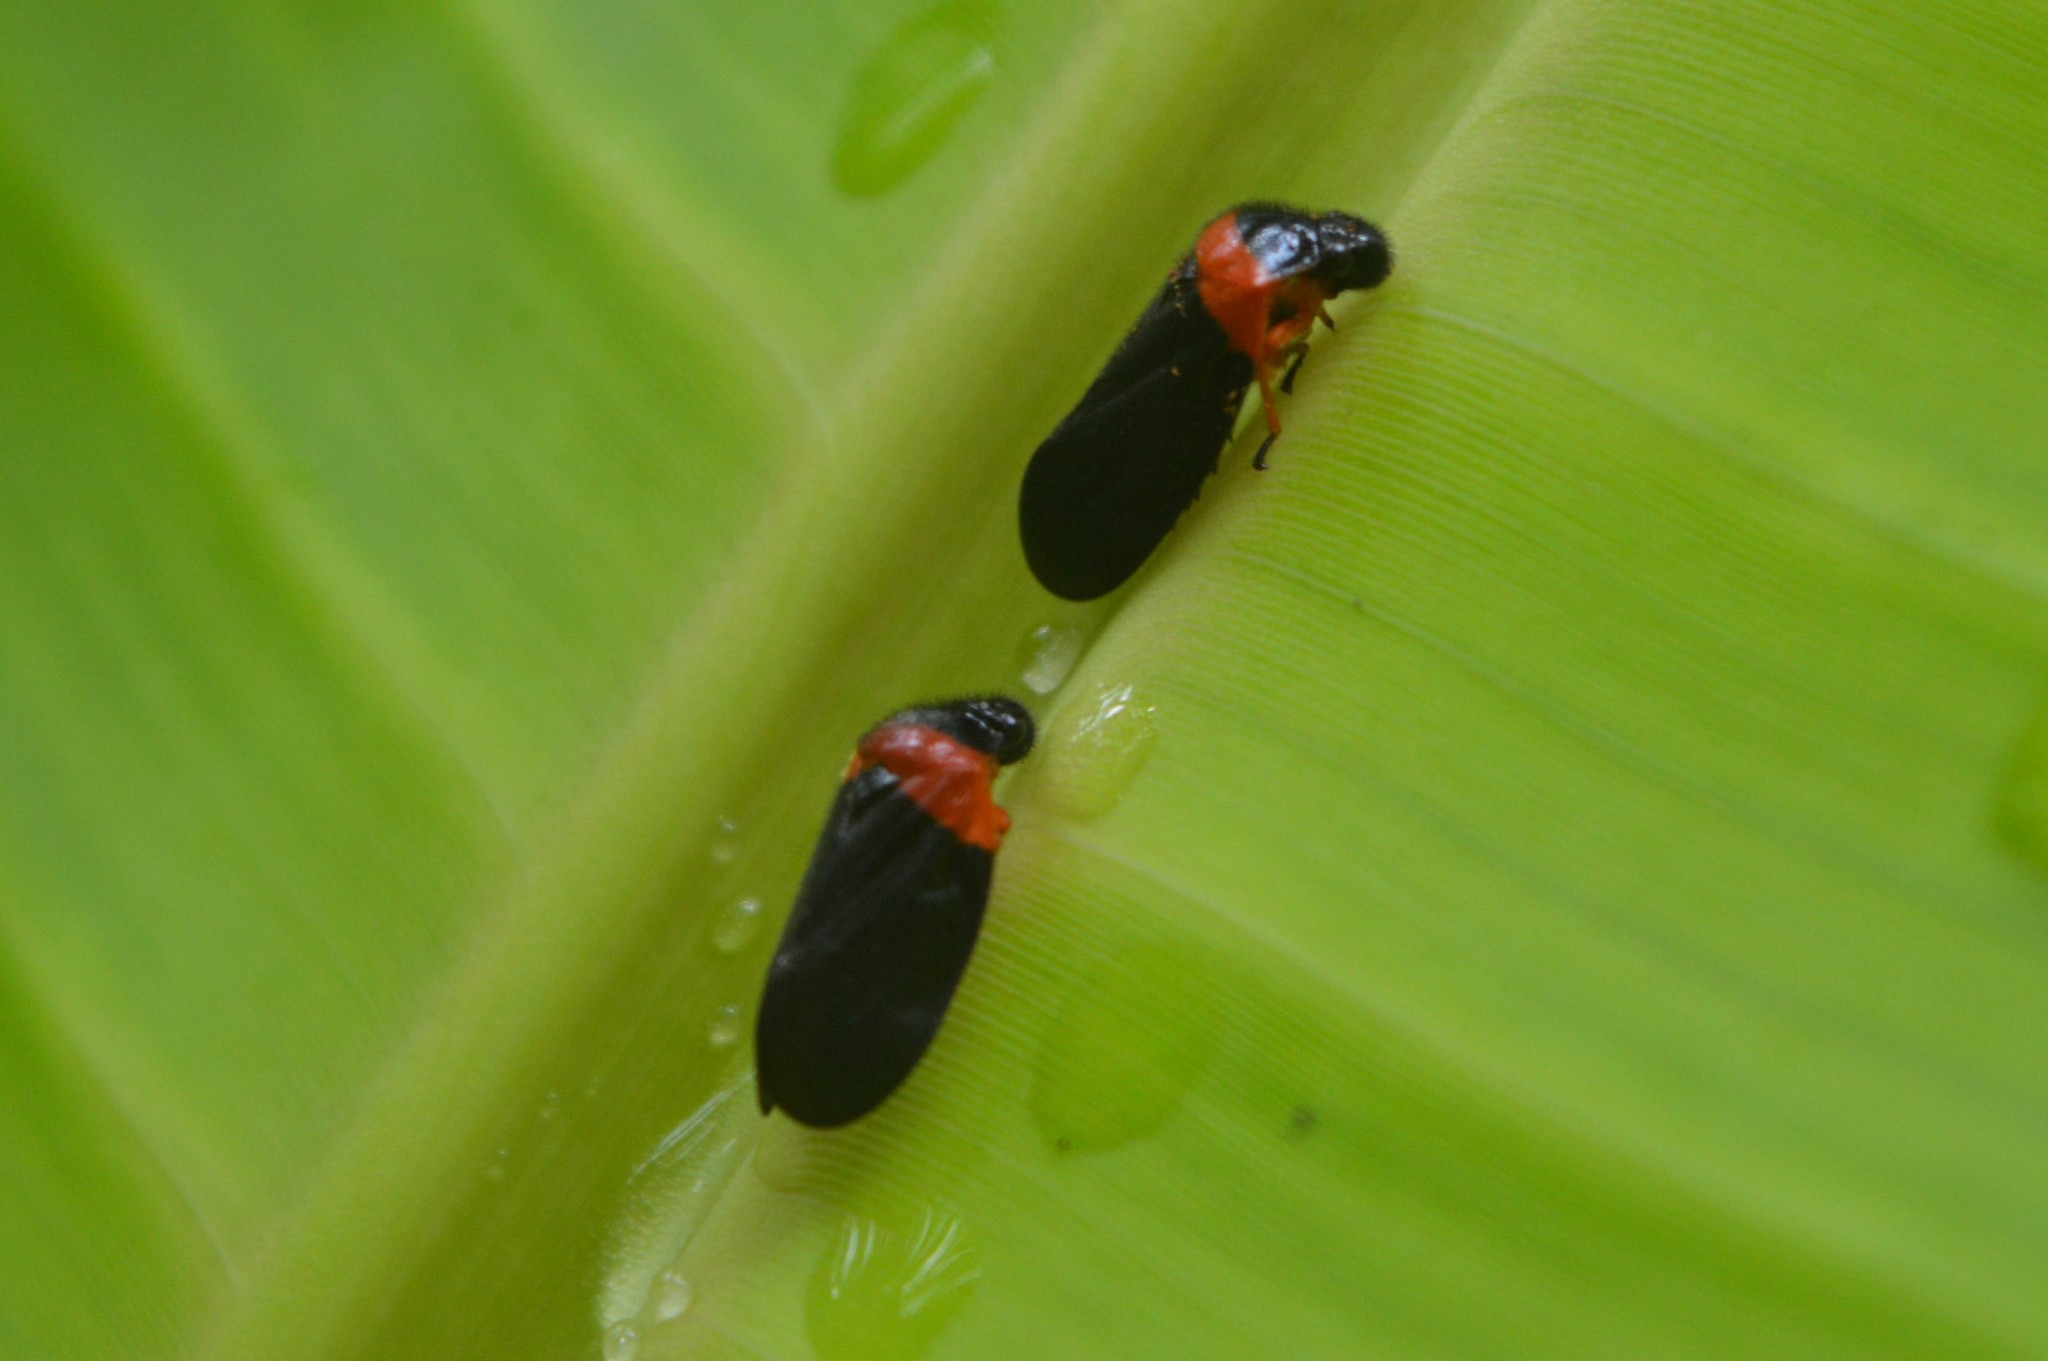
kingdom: Animalia
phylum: Arthropoda
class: Insecta
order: Hemiptera
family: Cercopidae
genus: Phymatostetha
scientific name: Phymatostetha deschampsi
